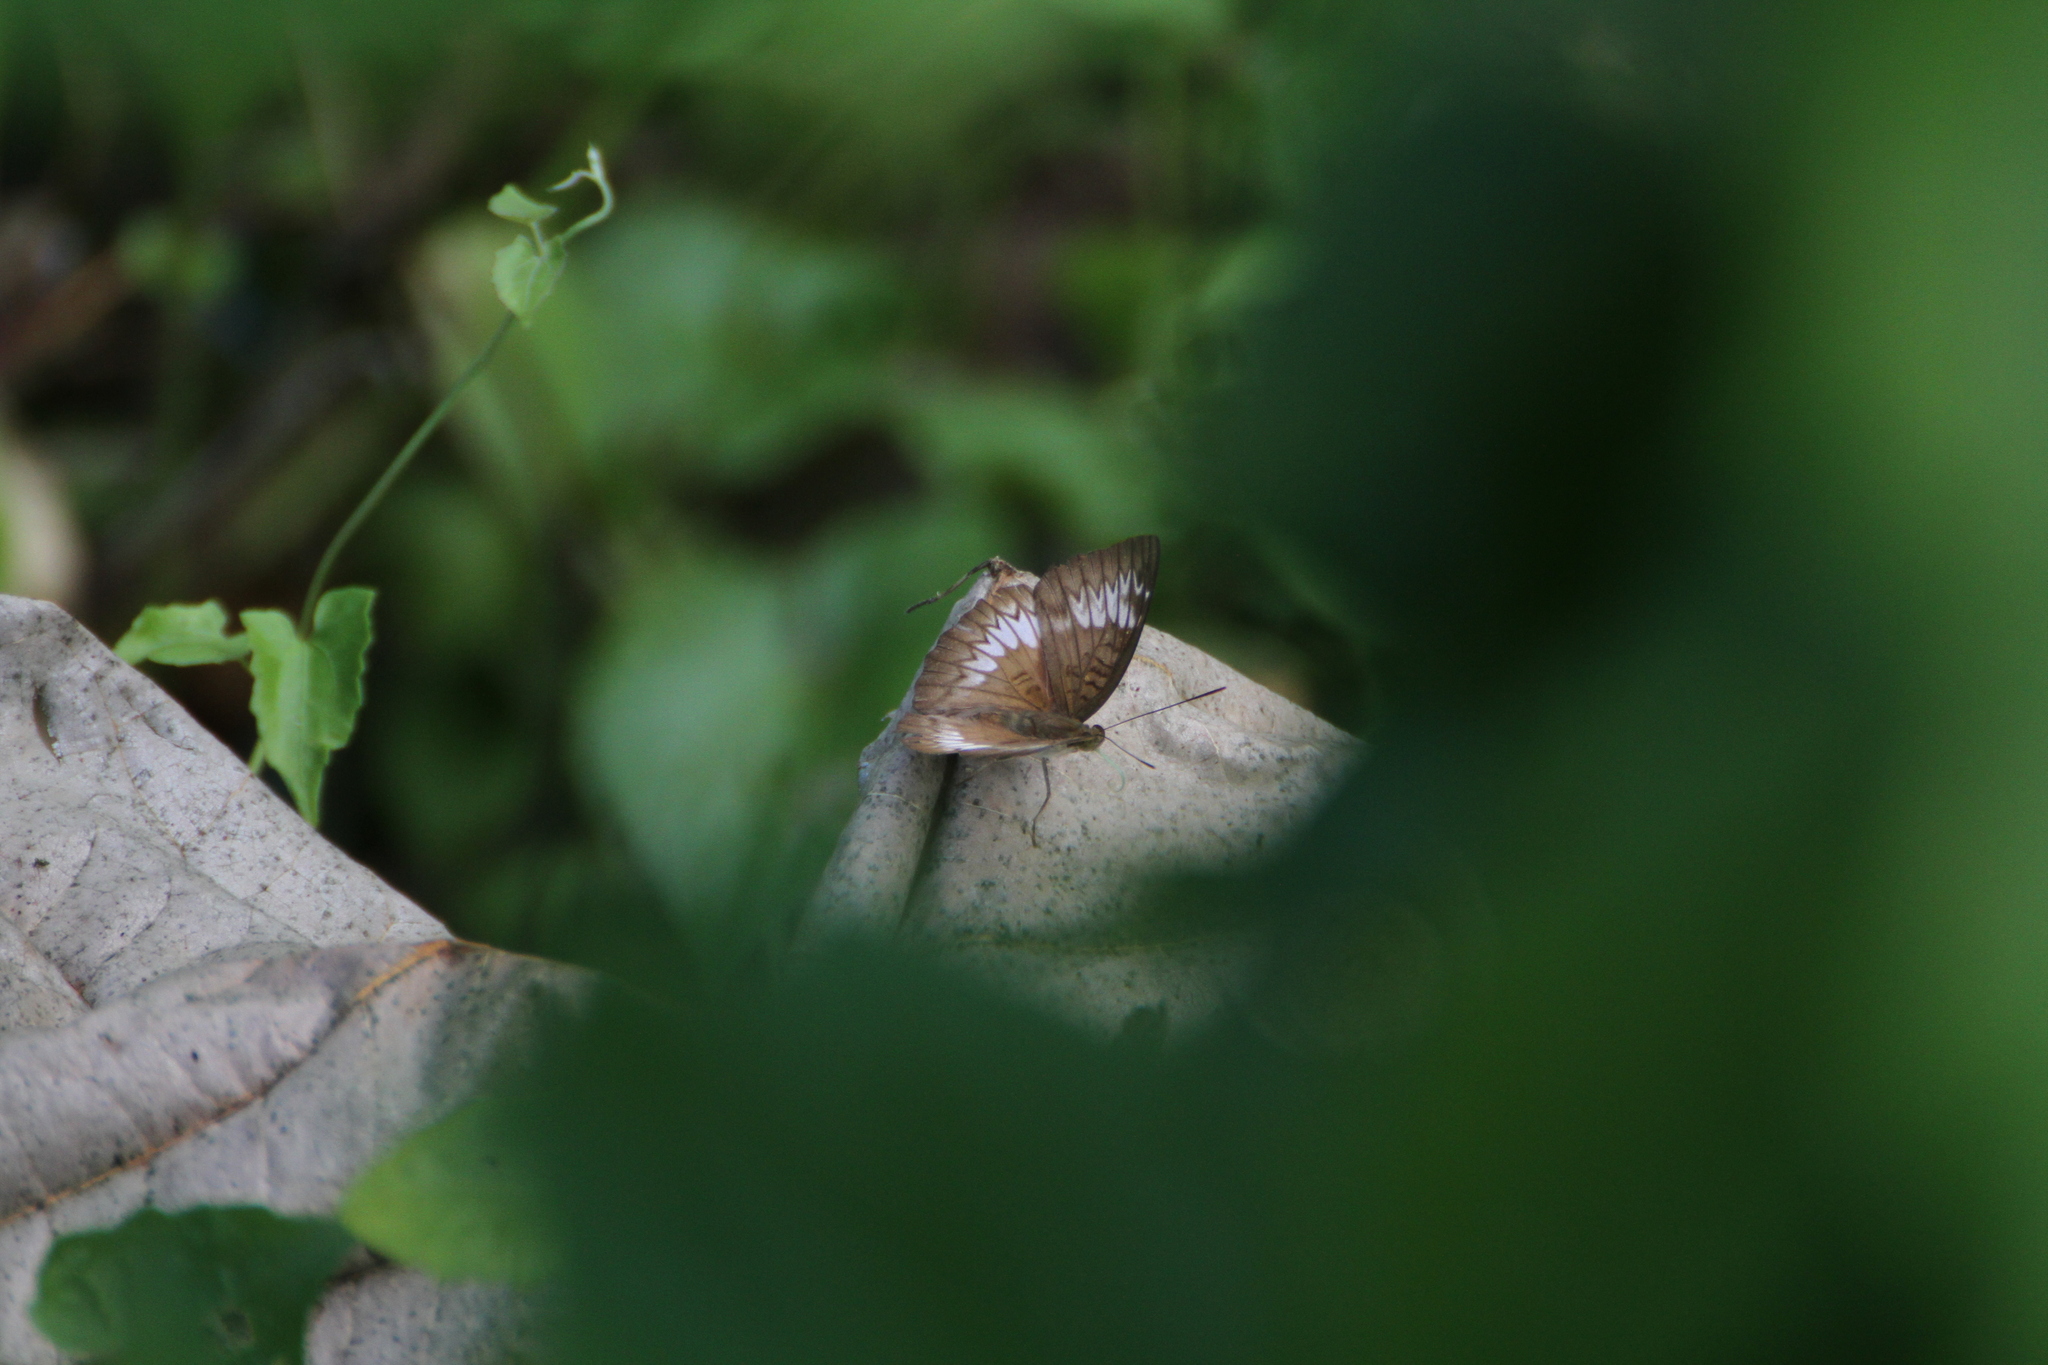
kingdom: Animalia
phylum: Arthropoda
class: Insecta
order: Lepidoptera
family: Nymphalidae
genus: Euthalia
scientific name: Euthalia monina
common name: Powdered baron
